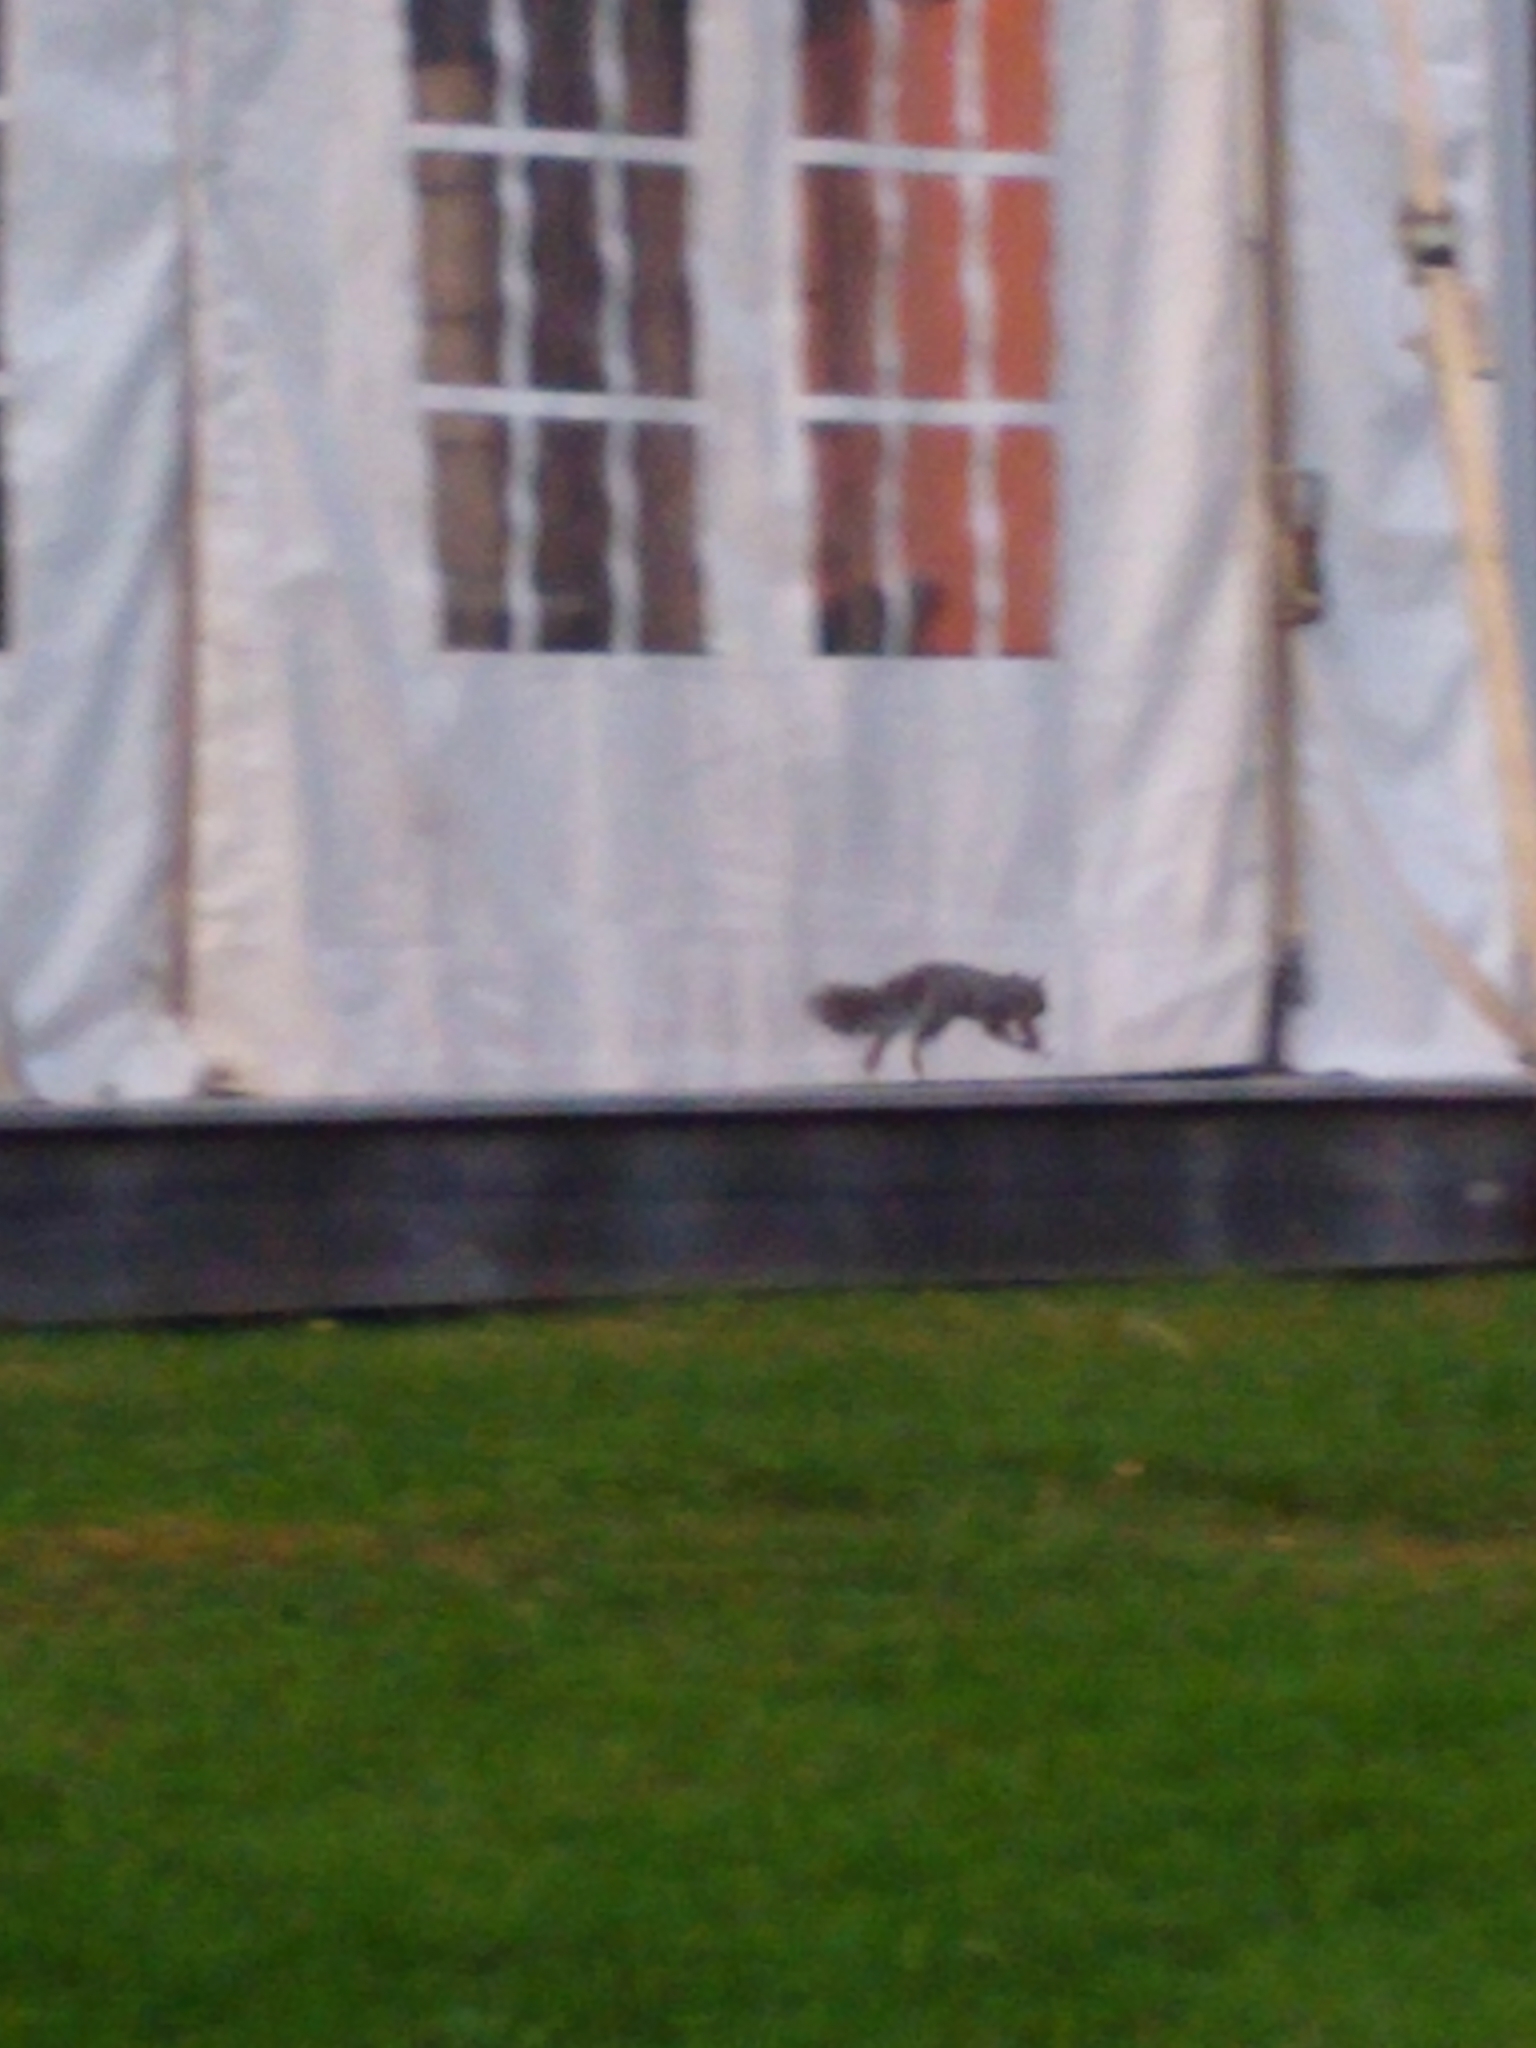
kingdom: Animalia
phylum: Chordata
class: Mammalia
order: Rodentia
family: Sciuridae
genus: Sciurus
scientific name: Sciurus carolinensis
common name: Eastern gray squirrel
